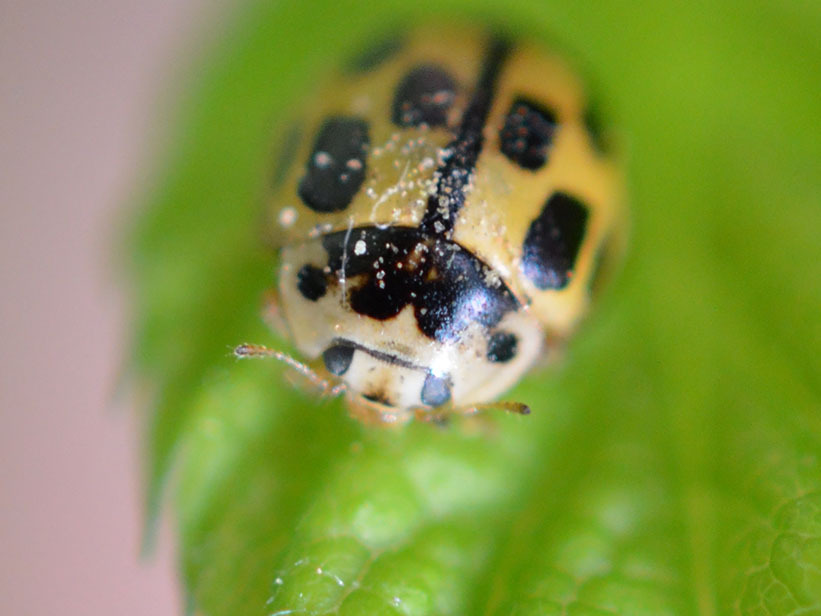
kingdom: Animalia
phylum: Arthropoda
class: Insecta
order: Coleoptera
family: Coccinellidae
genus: Propylaea
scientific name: Propylaea quatuordecimpunctata
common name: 14-spotted ladybird beetle
